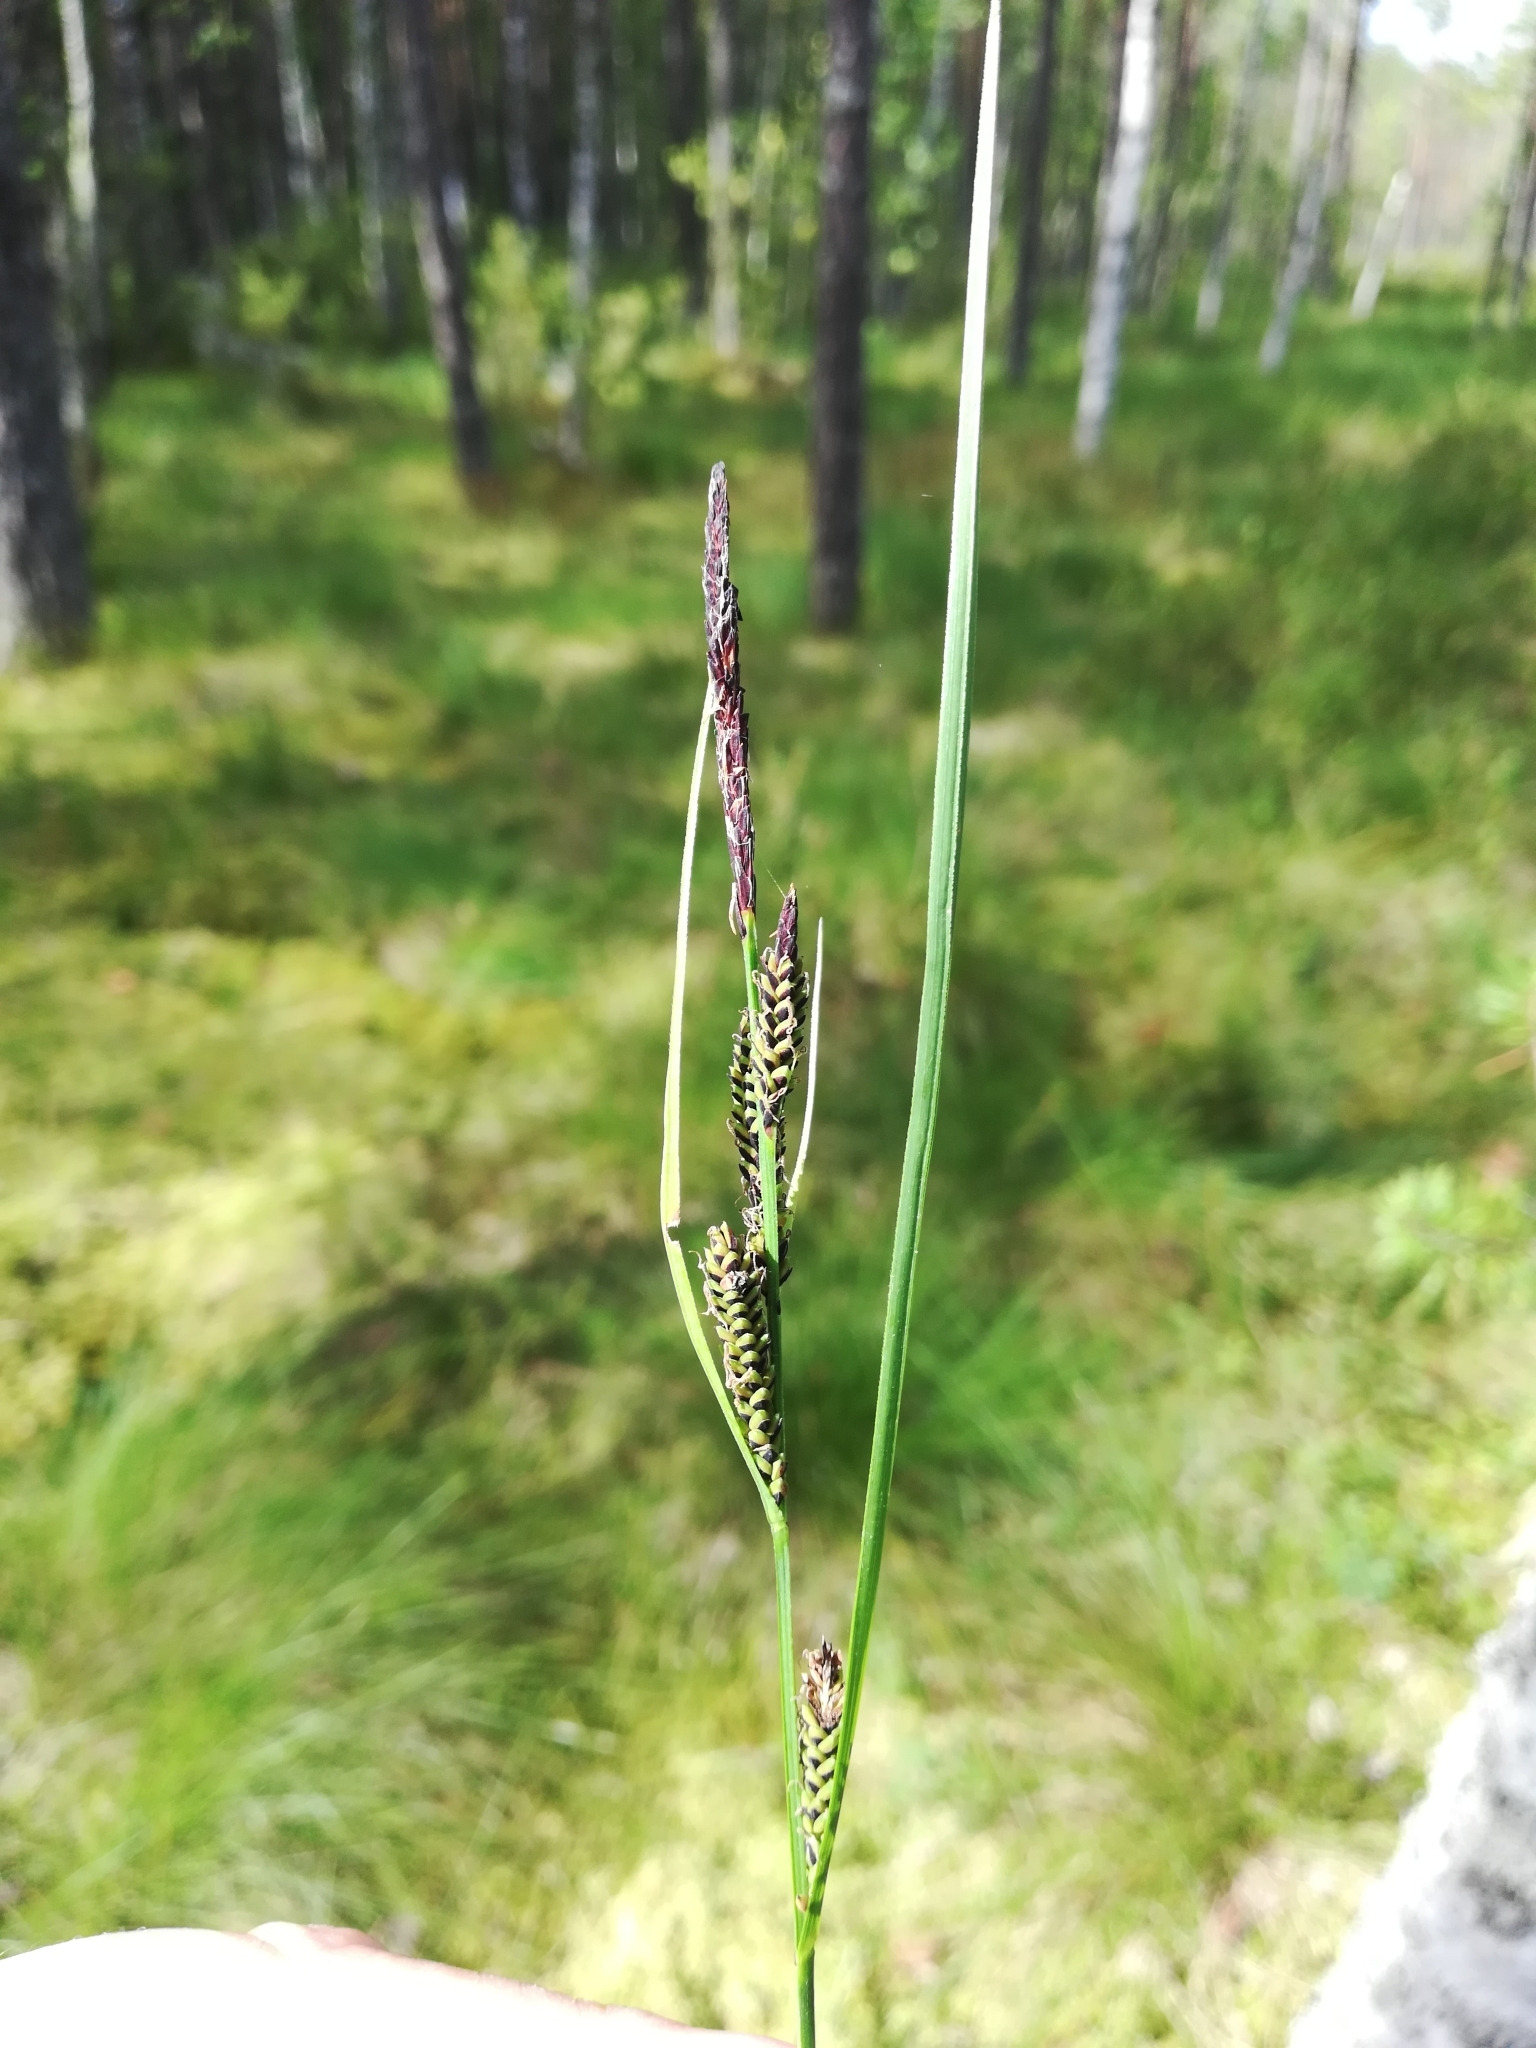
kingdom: Plantae
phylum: Tracheophyta
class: Liliopsida
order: Poales
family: Cyperaceae
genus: Carex
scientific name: Carex nigra
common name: Common sedge
